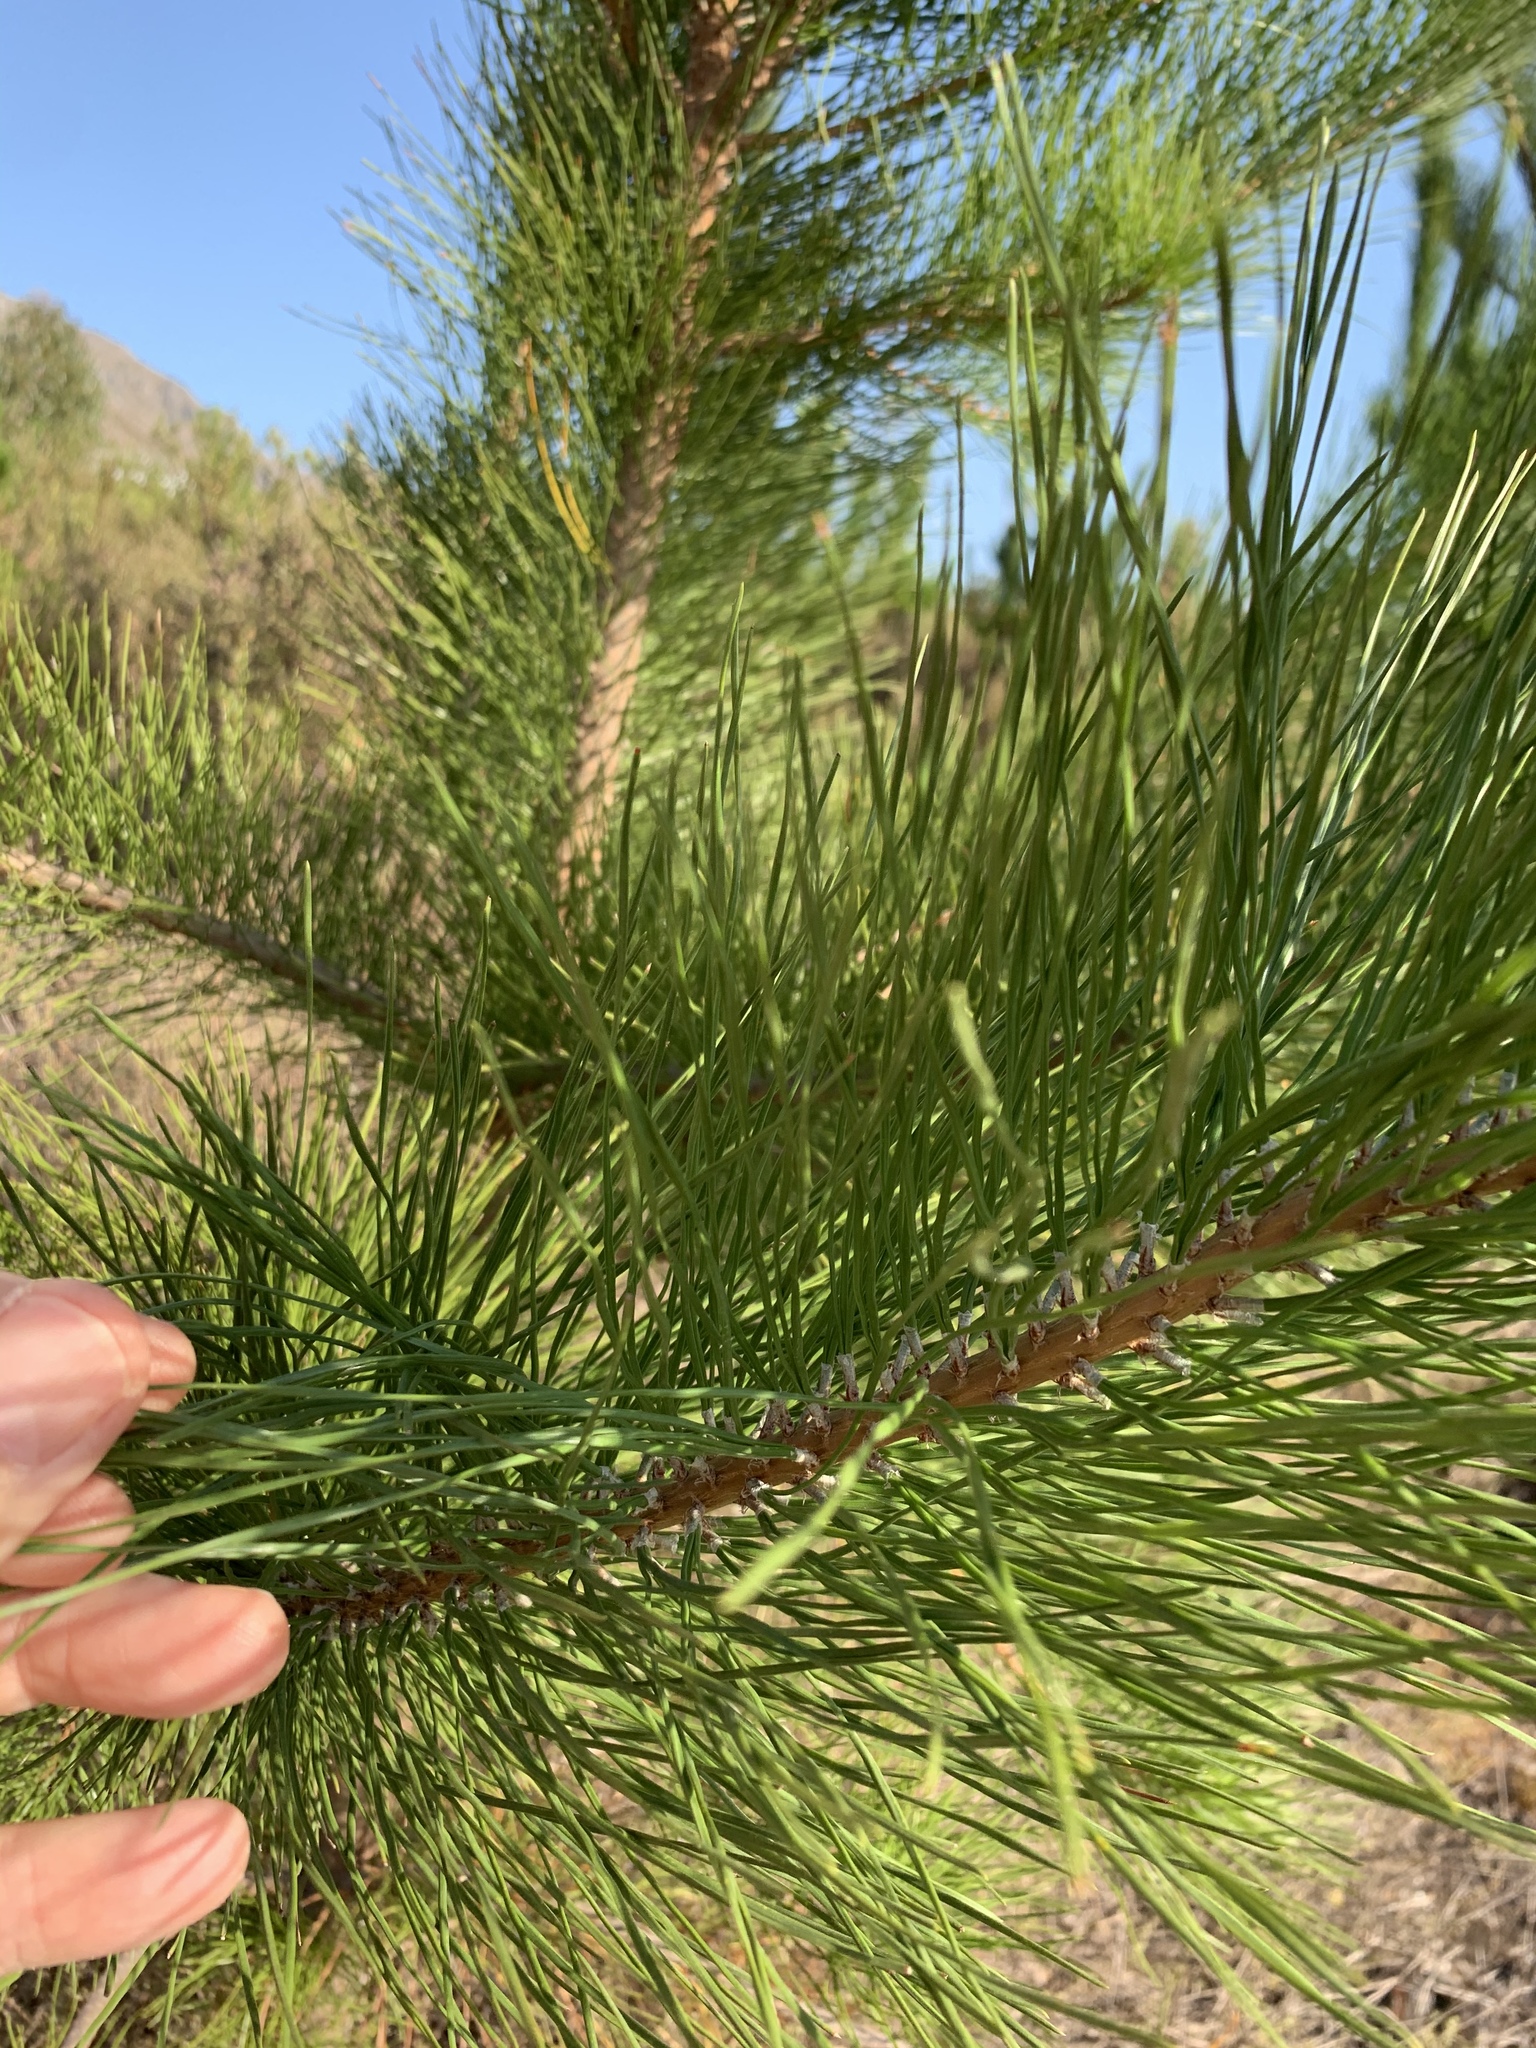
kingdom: Plantae
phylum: Tracheophyta
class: Pinopsida
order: Pinales
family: Pinaceae
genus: Pinus
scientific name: Pinus radiata
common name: Monterey pine
